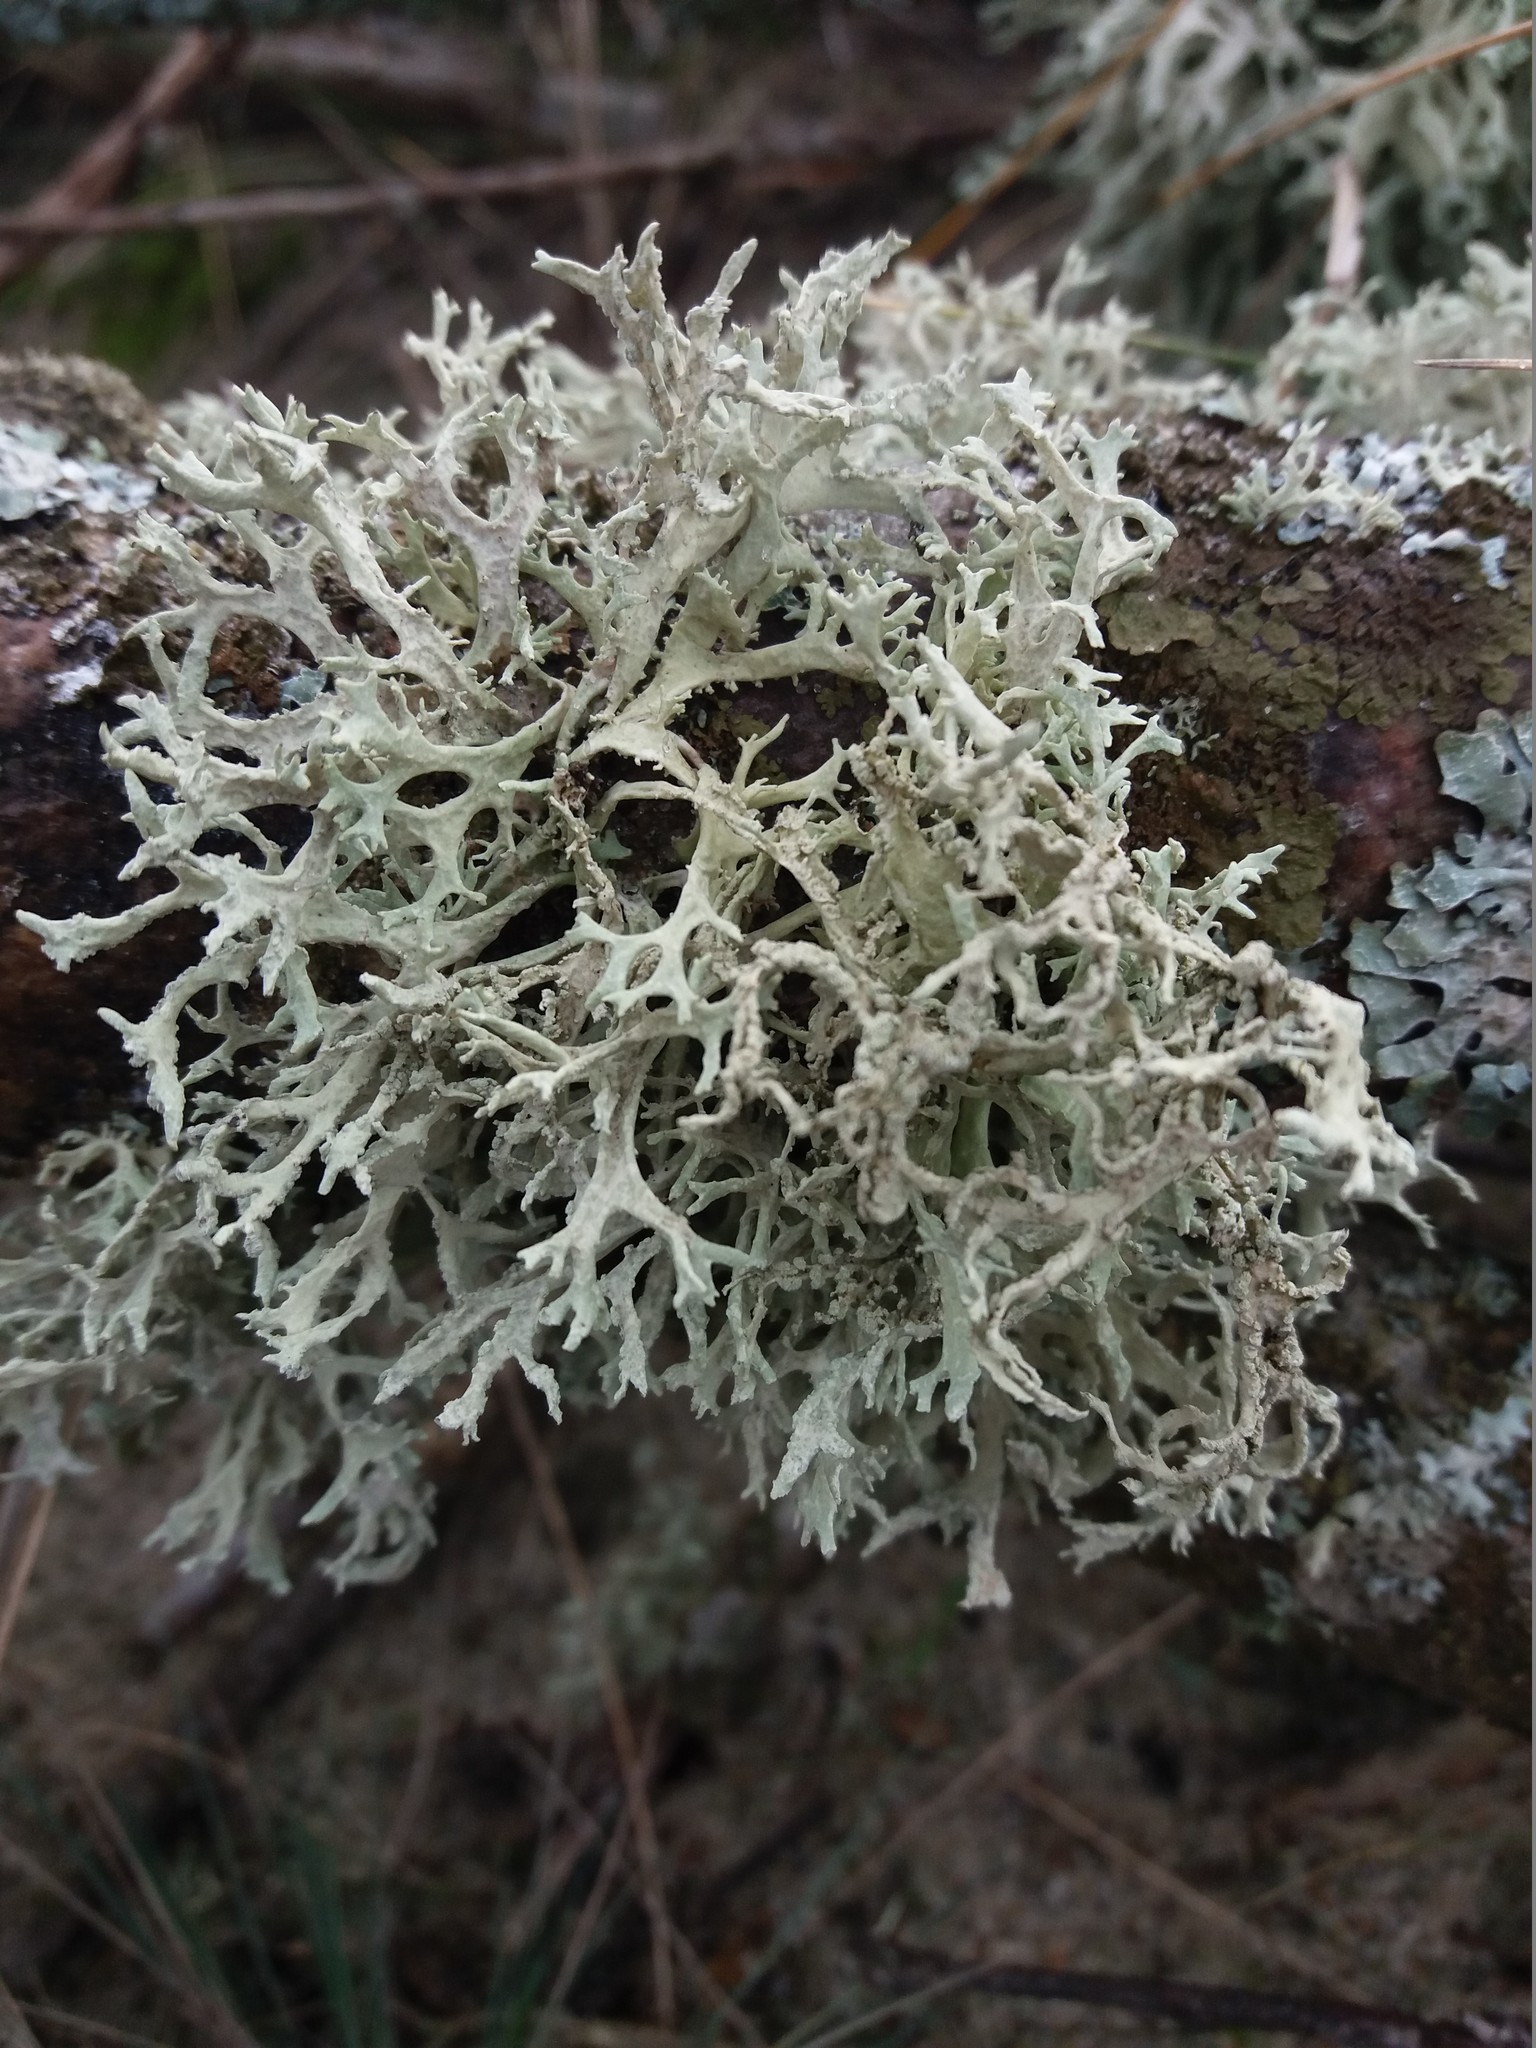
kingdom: Fungi
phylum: Ascomycota
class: Lecanoromycetes
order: Lecanorales
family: Parmeliaceae
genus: Pseudevernia
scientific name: Pseudevernia furfuracea
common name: Tree moss
